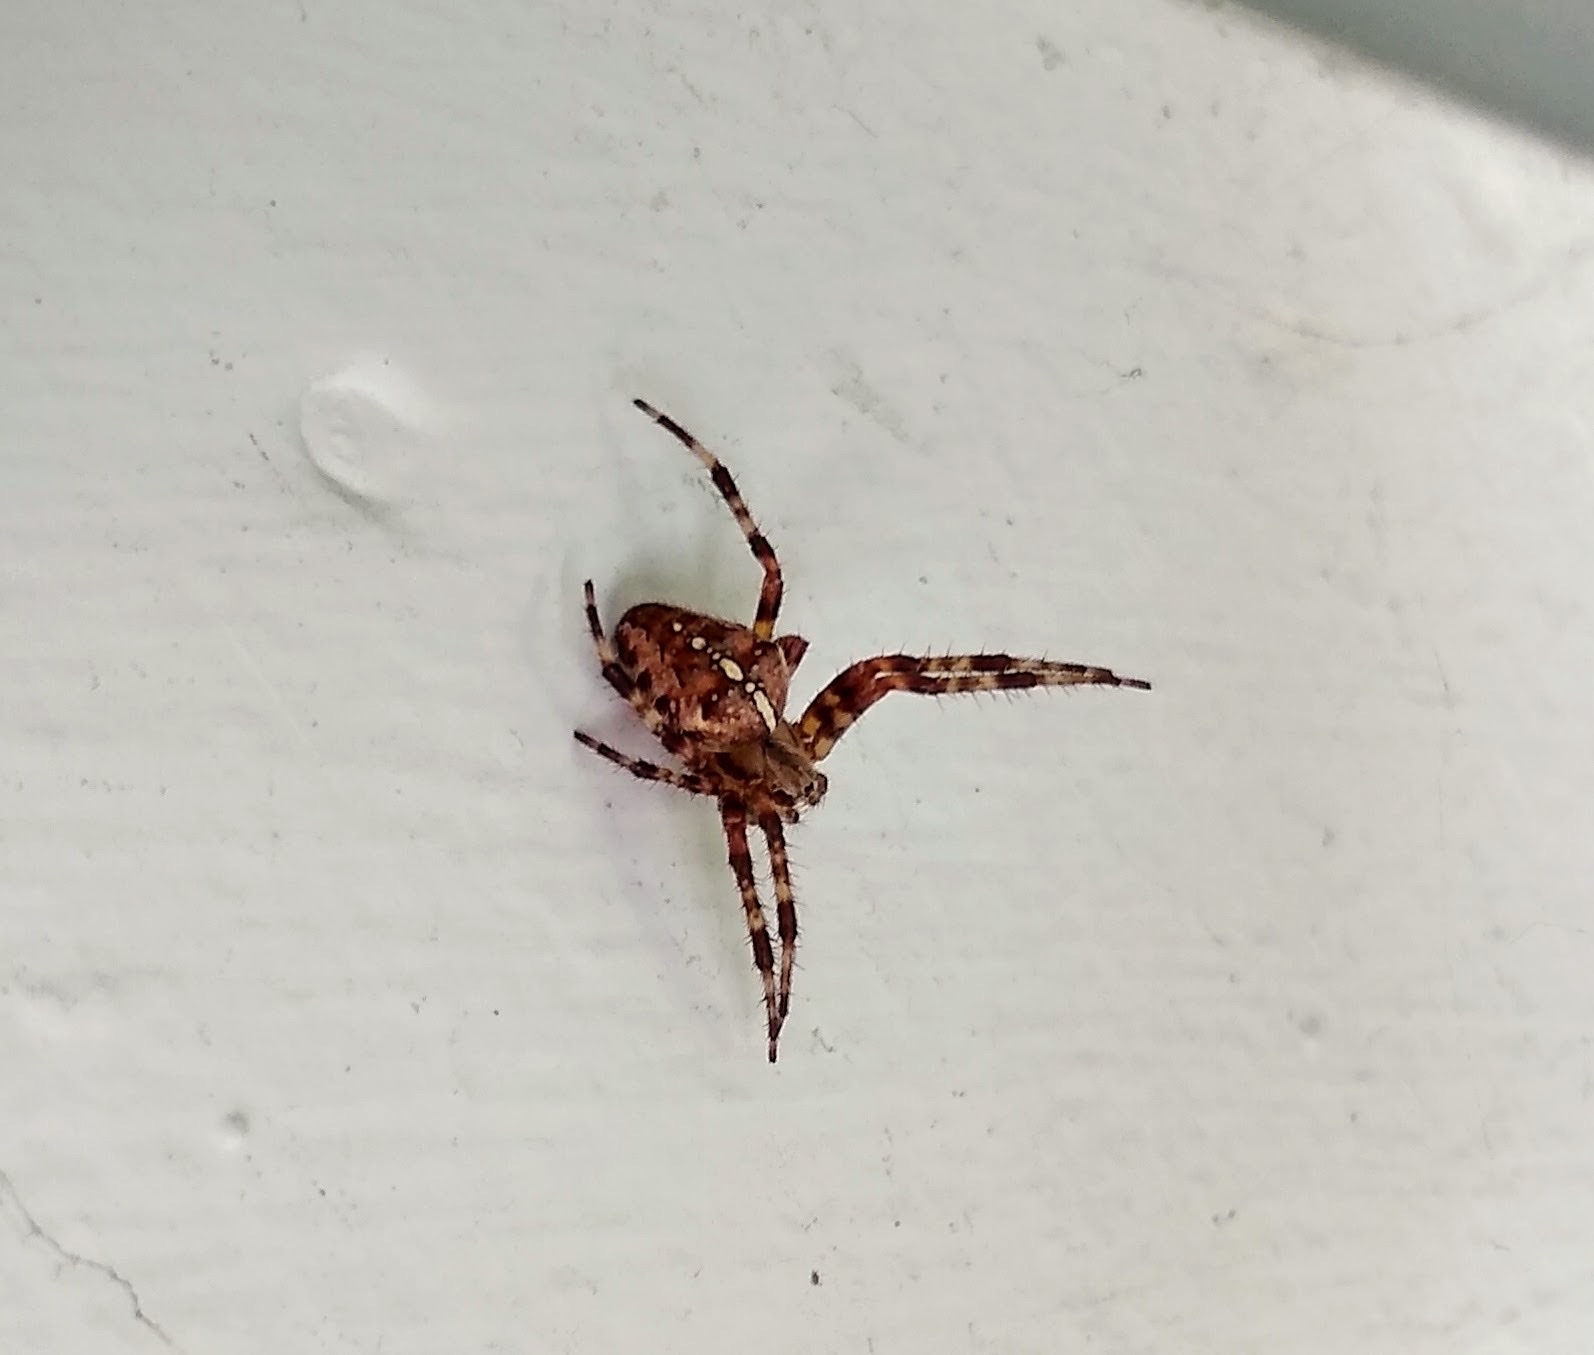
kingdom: Animalia
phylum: Arthropoda
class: Arachnida
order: Araneae
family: Araneidae
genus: Araneus
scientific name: Araneus diadematus
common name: Cross orbweaver
